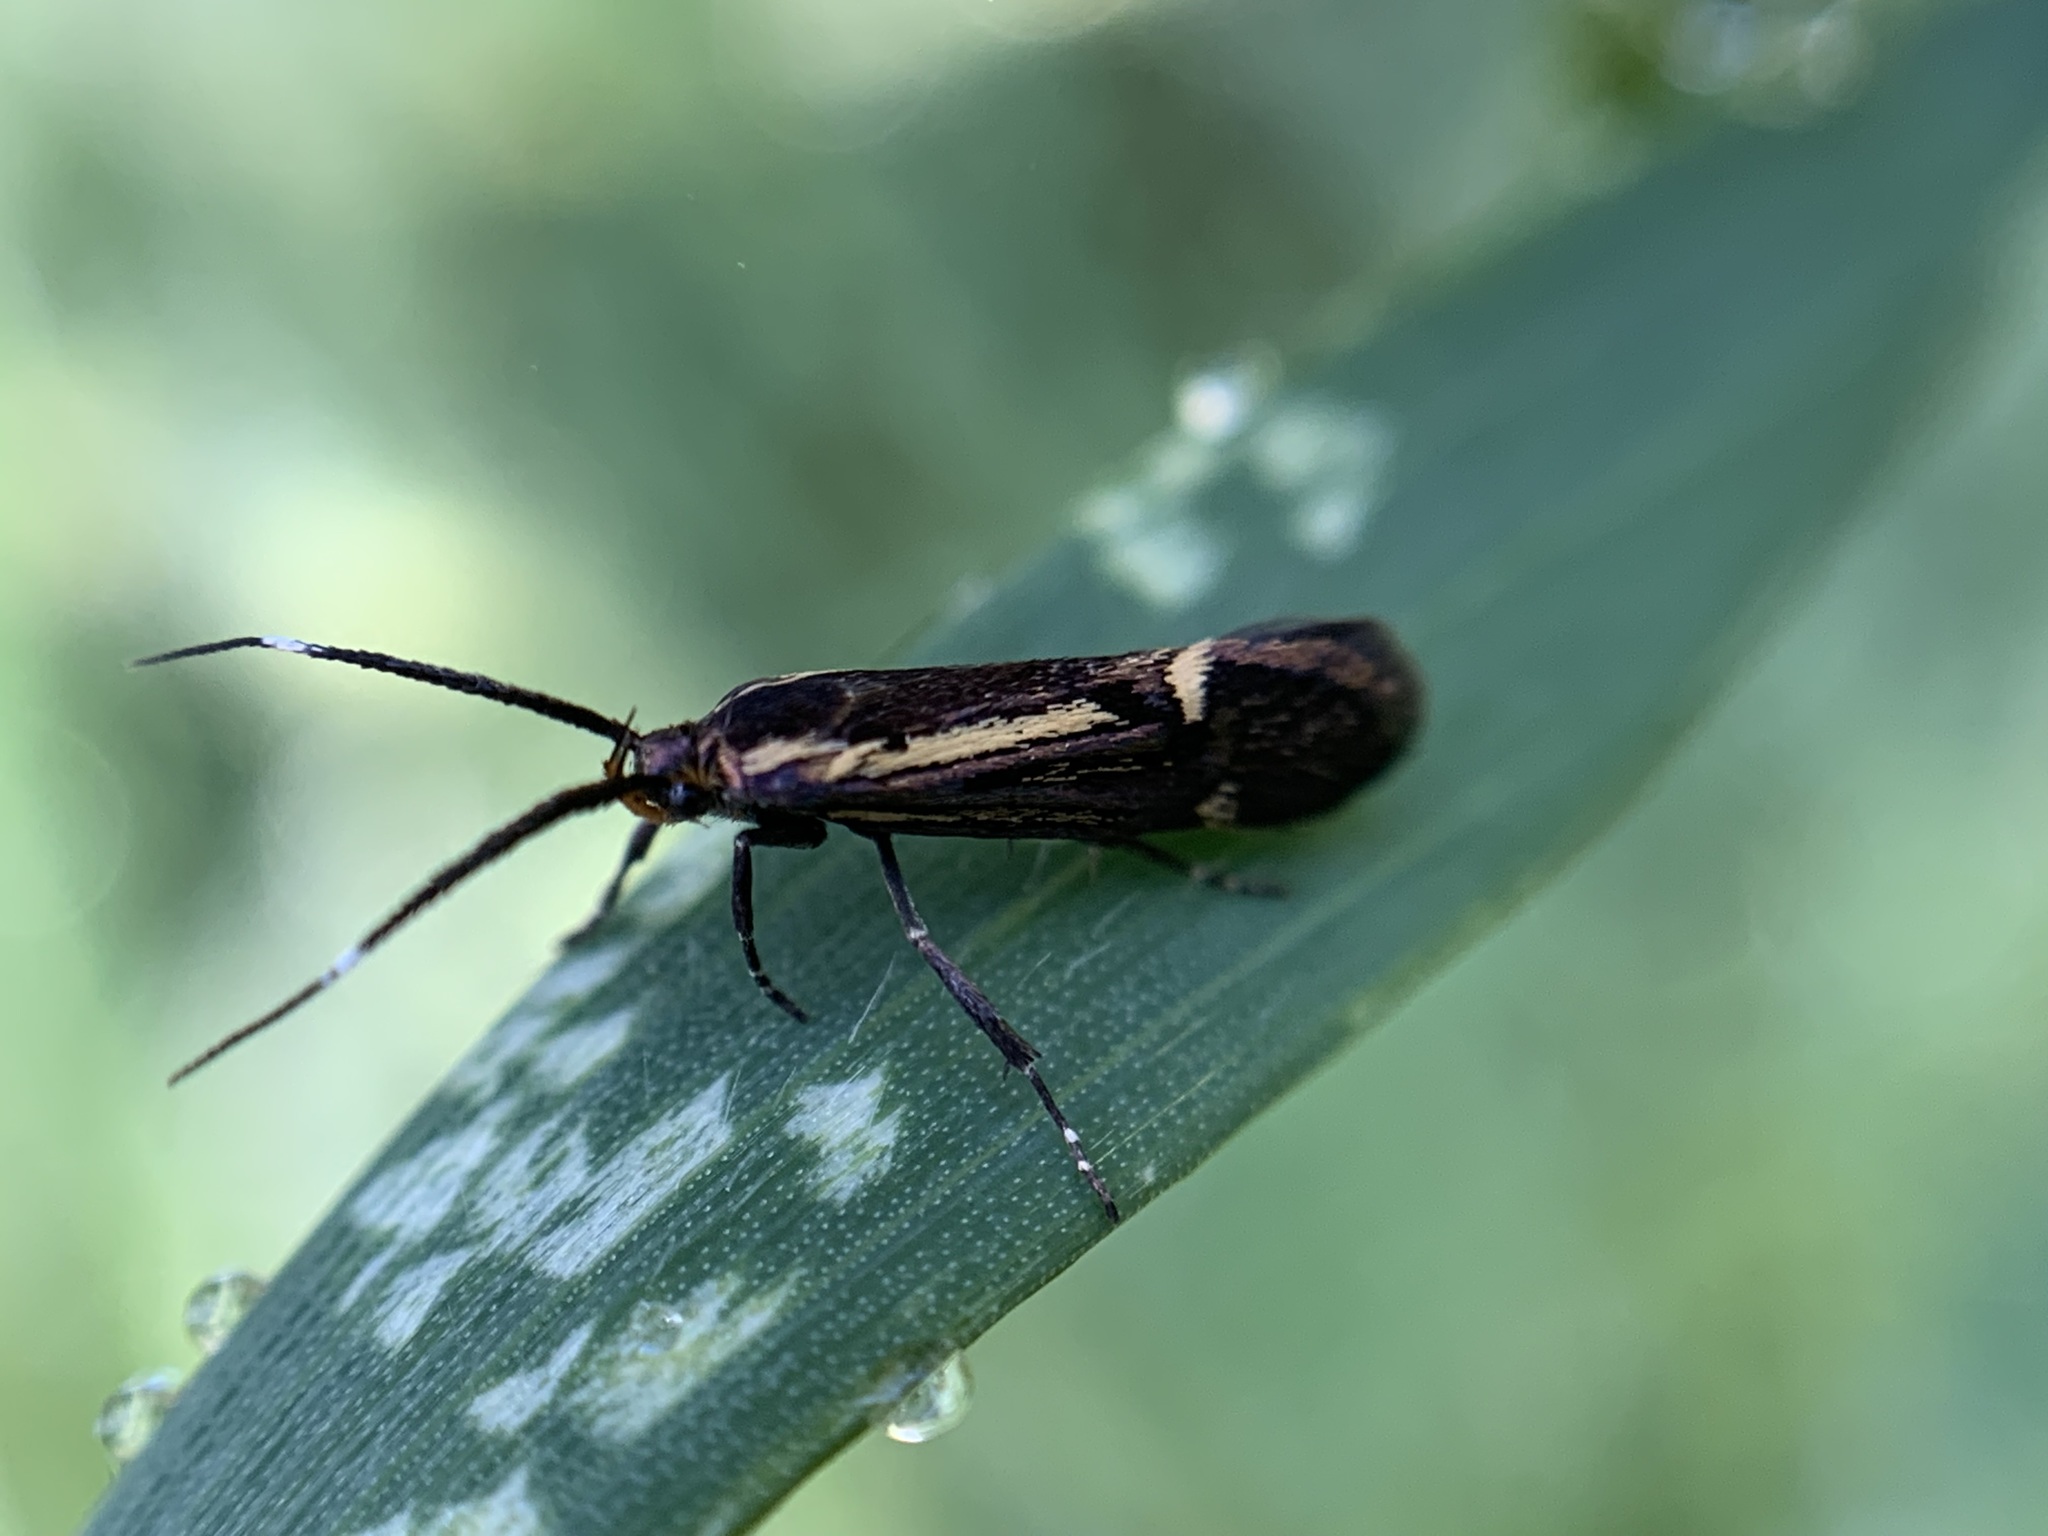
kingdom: Animalia
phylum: Arthropoda
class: Insecta
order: Lepidoptera
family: Oecophoridae
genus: Dafa
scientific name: Dafa Esperia sulphurella
